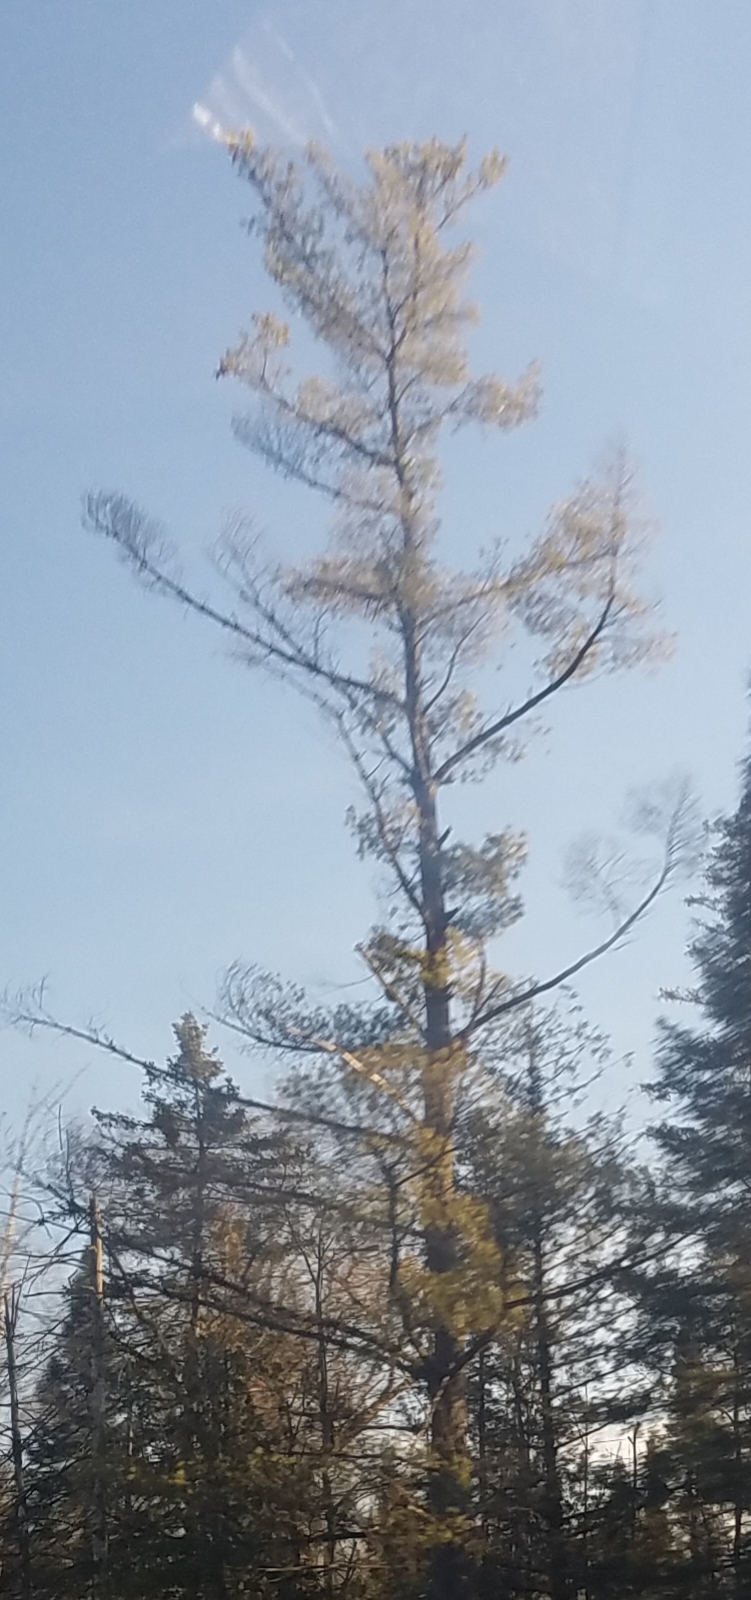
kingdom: Plantae
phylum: Tracheophyta
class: Pinopsida
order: Pinales
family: Pinaceae
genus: Pinus
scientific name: Pinus strobus
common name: Weymouth pine
